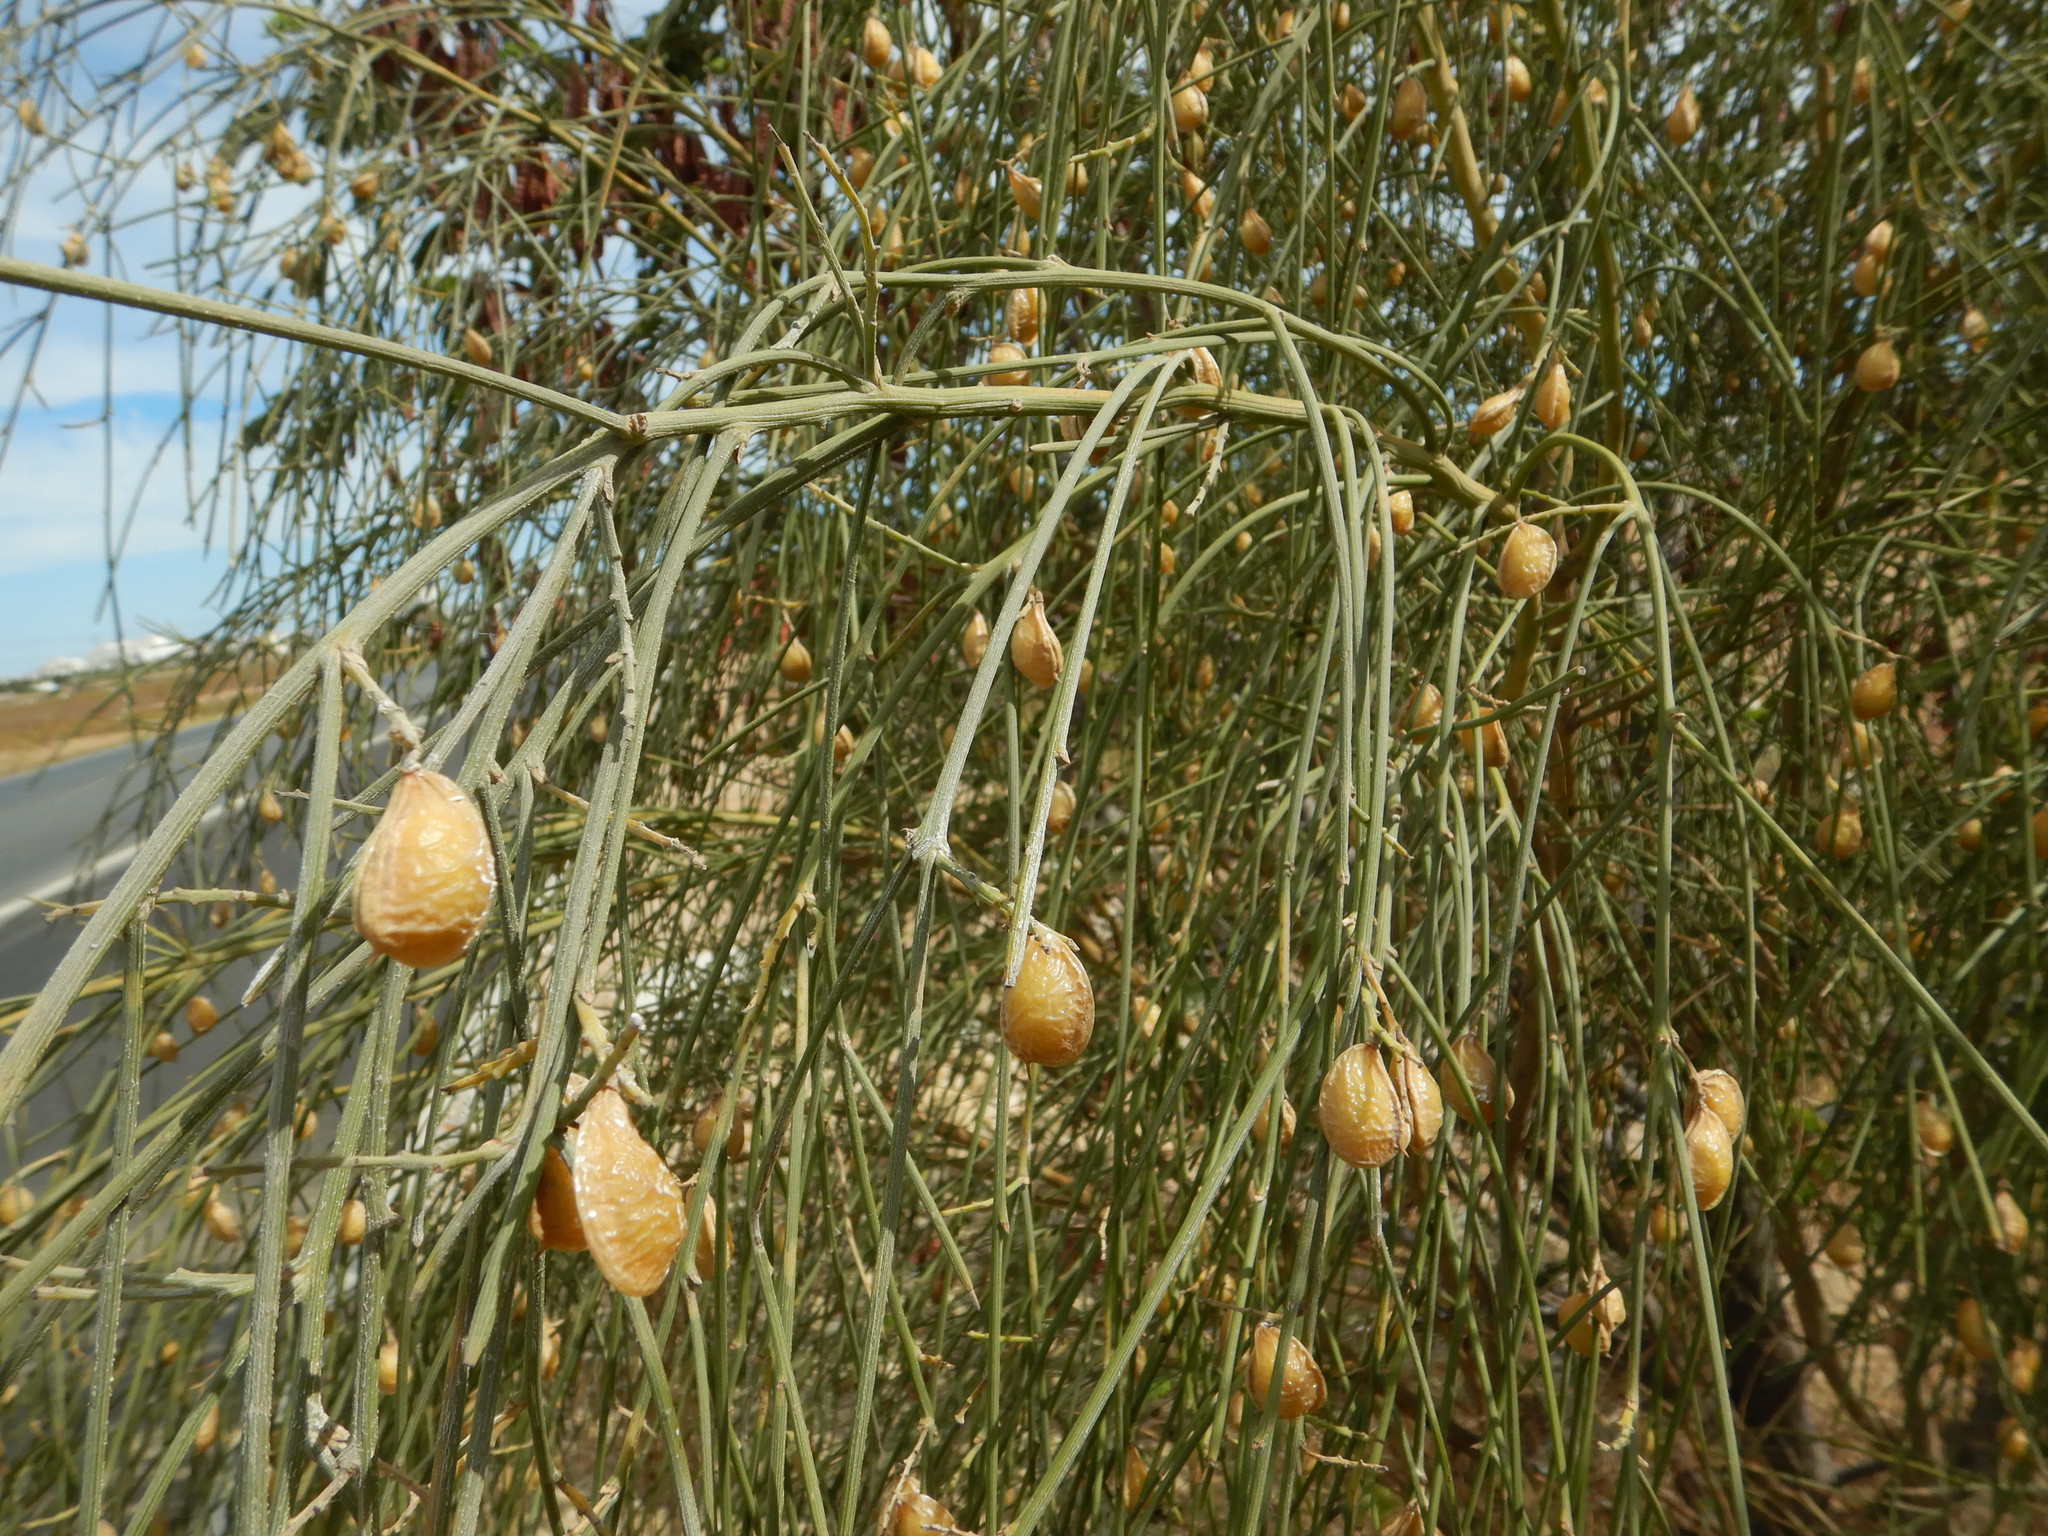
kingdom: Plantae
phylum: Tracheophyta
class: Magnoliopsida
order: Fabales
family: Fabaceae
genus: Retama
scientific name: Retama monosperma
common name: Bridal broom
